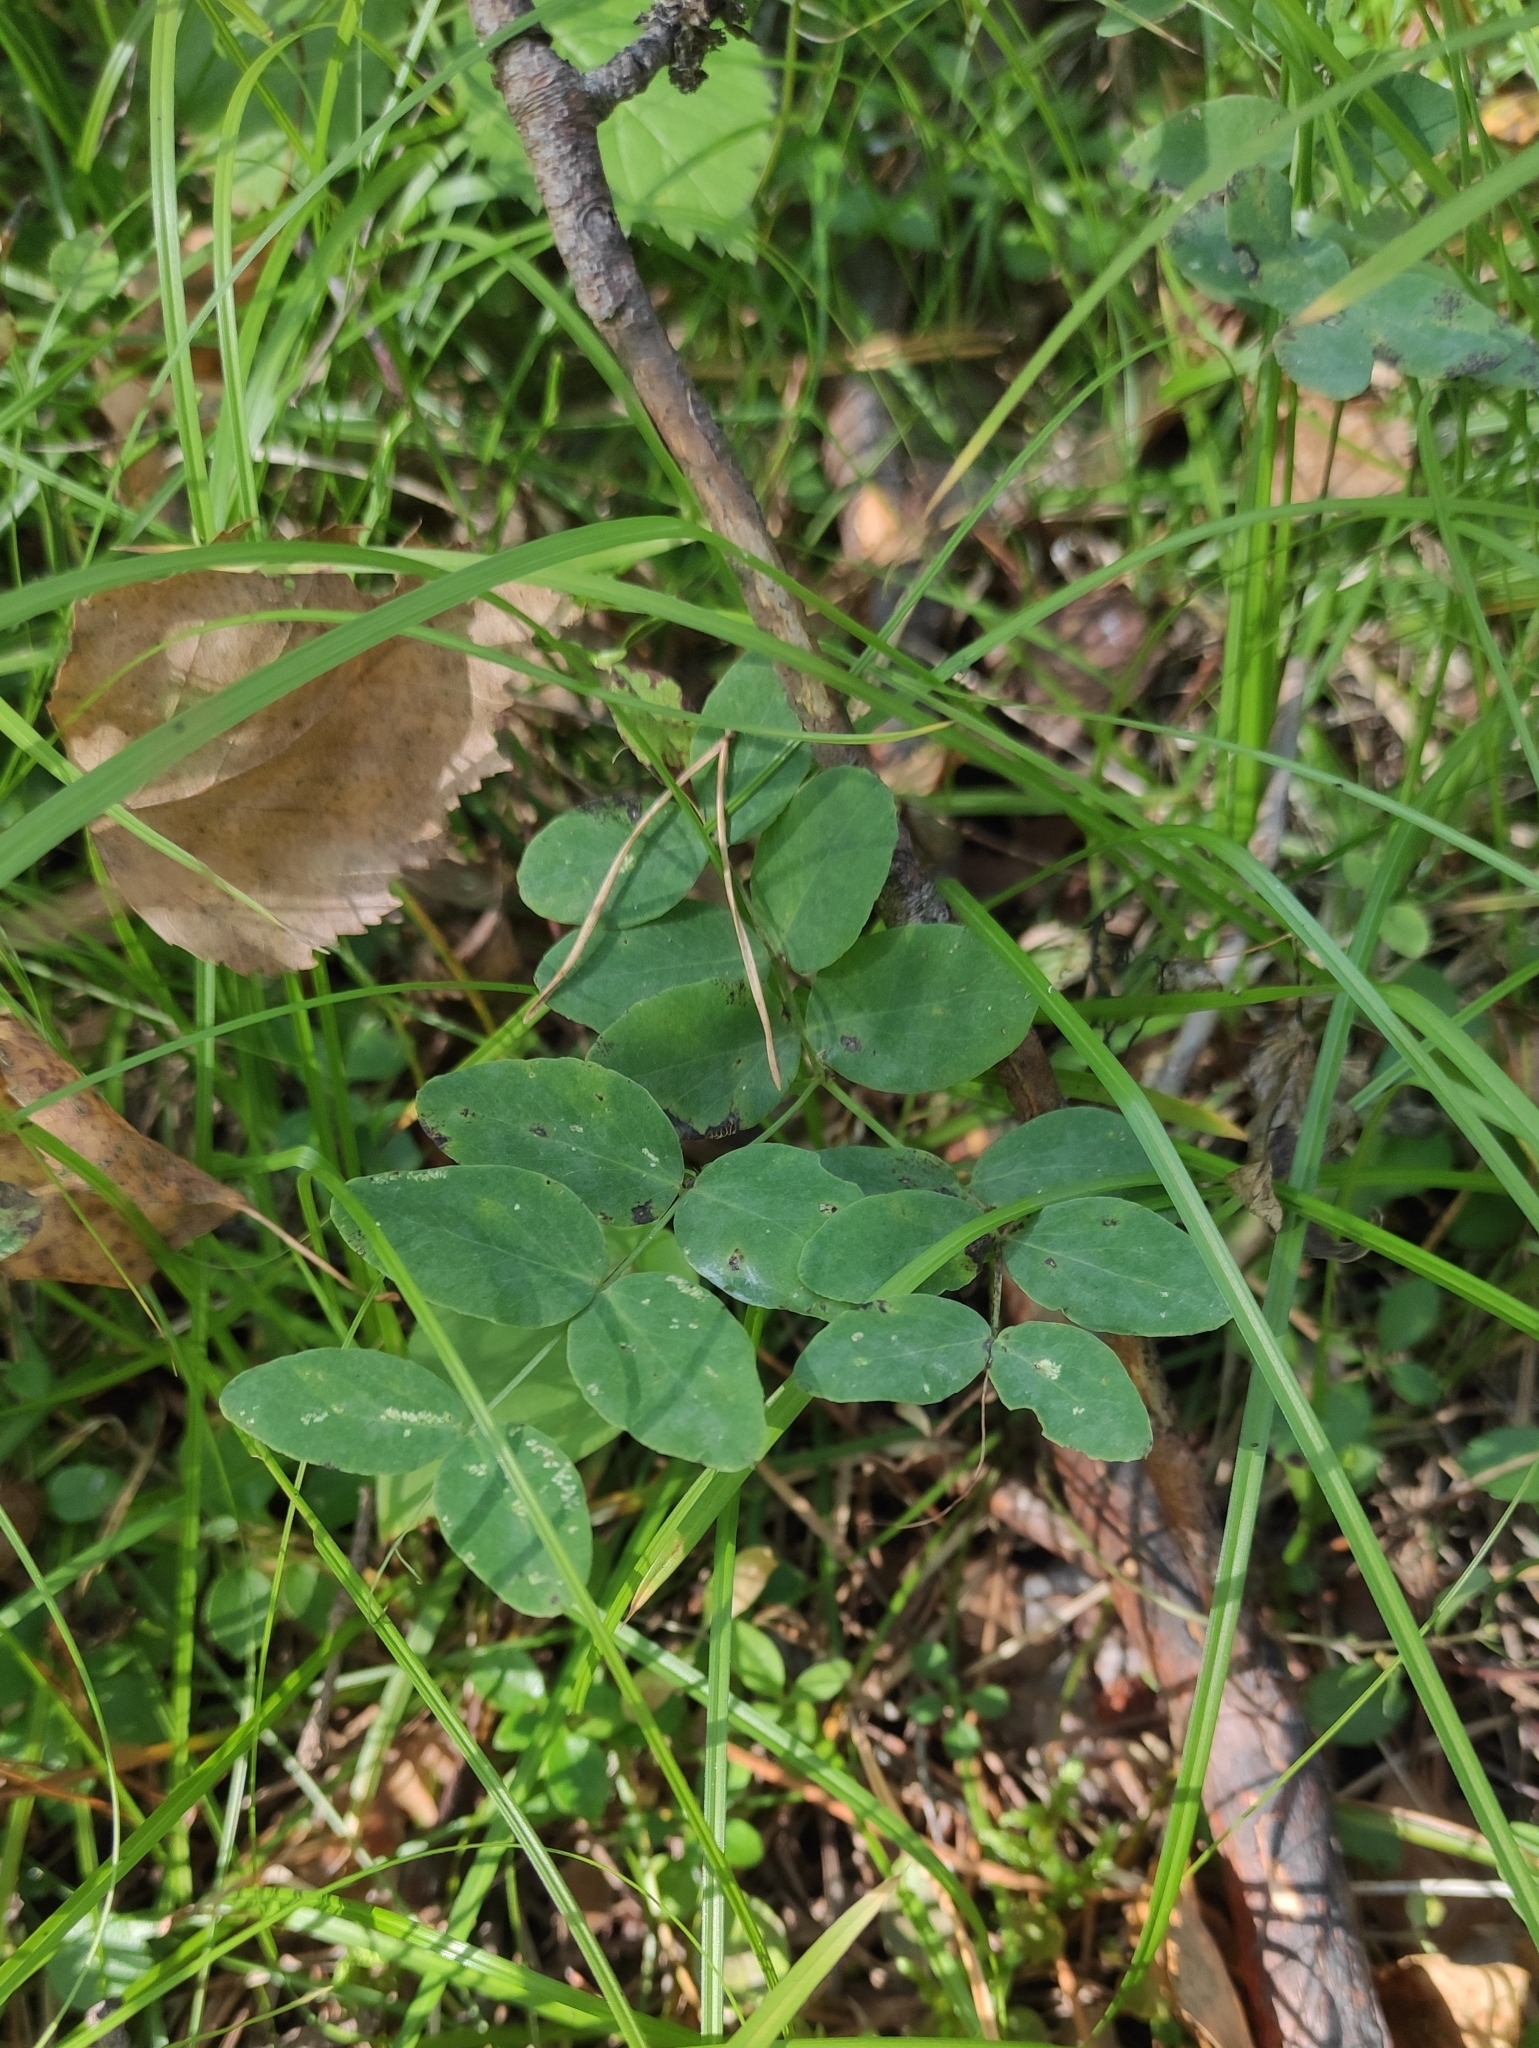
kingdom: Plantae
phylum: Tracheophyta
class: Magnoliopsida
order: Fabales
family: Fabaceae
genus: Lathyrus
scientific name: Lathyrus humilis
